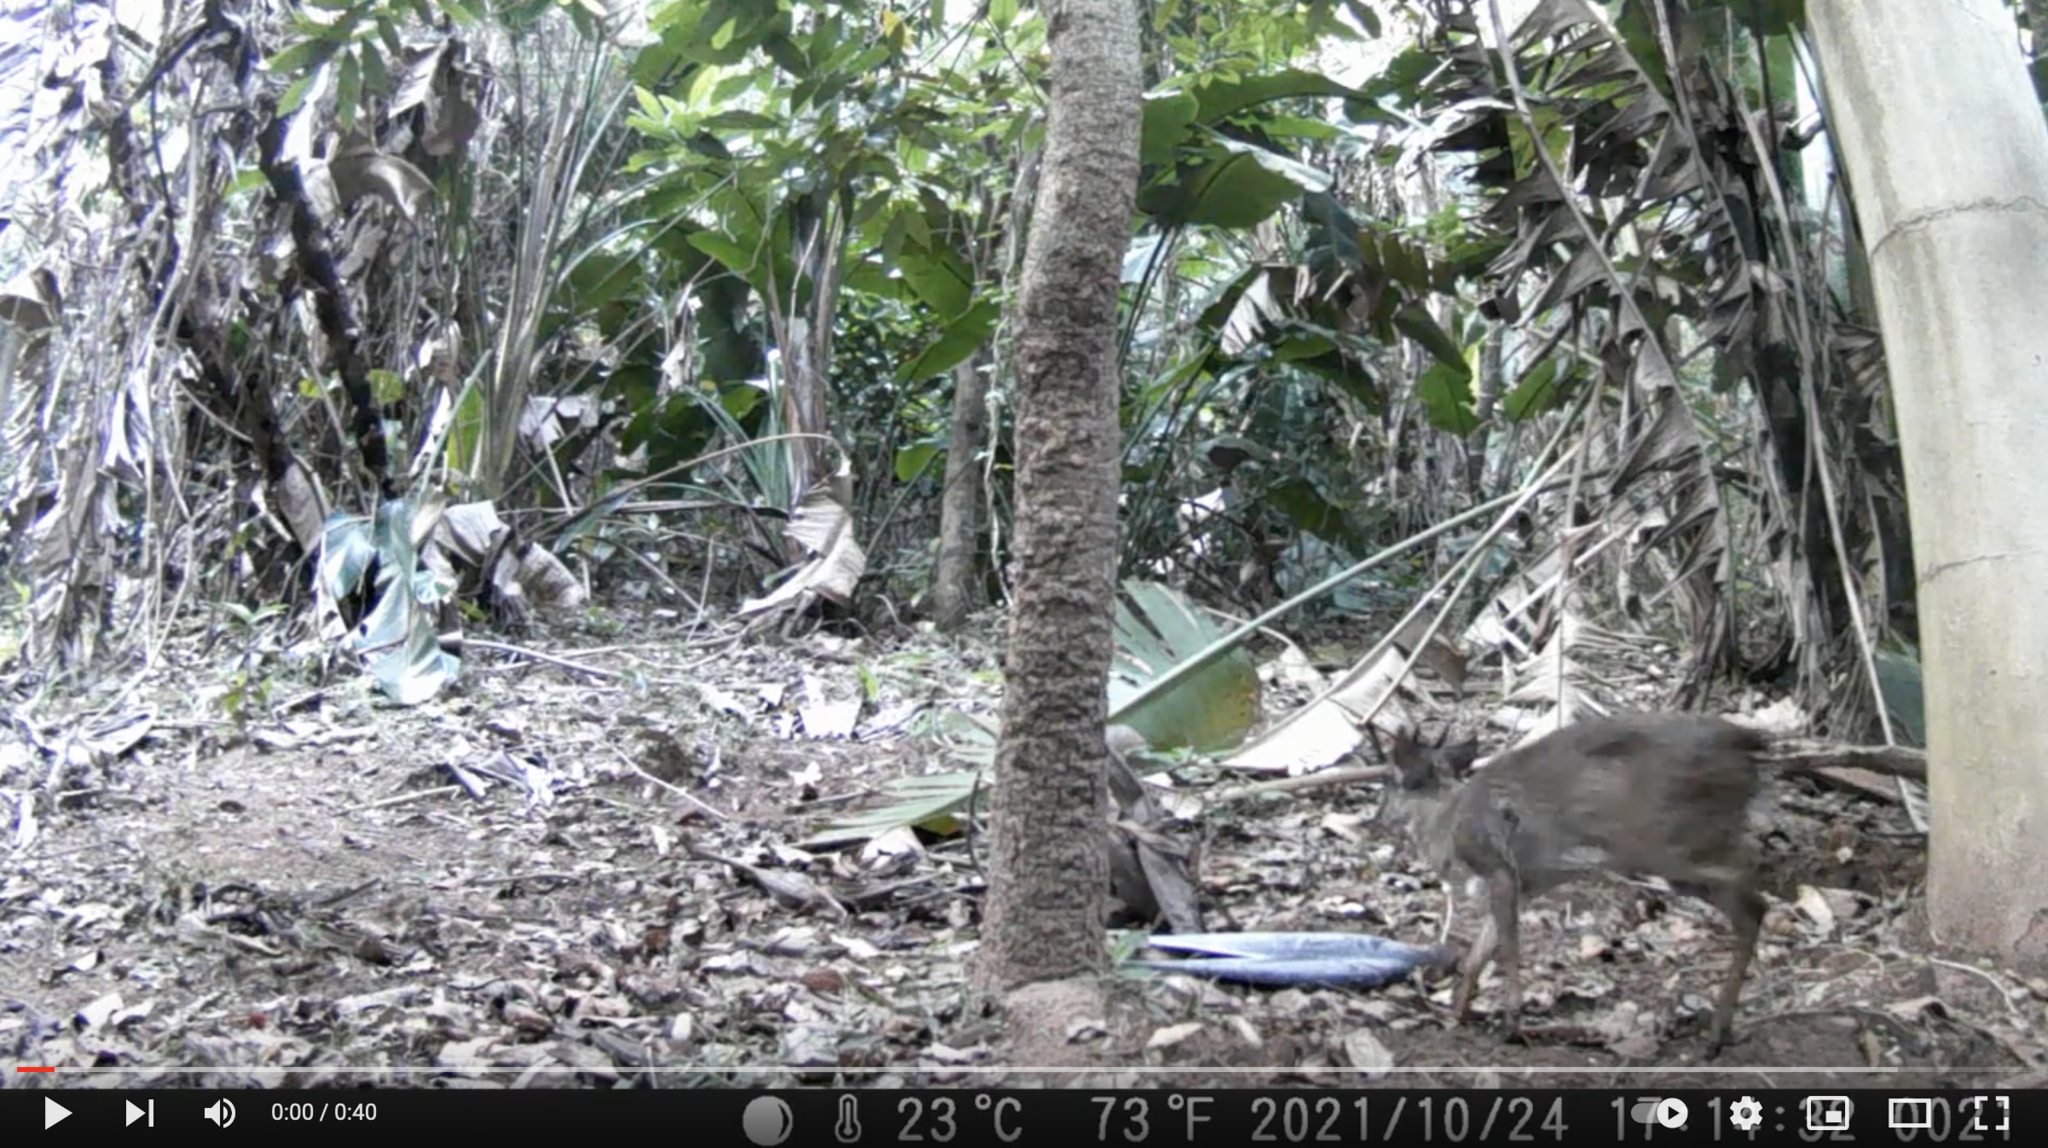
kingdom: Animalia
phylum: Chordata
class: Mammalia
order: Artiodactyla
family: Bovidae
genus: Philantomba
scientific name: Philantomba monticola
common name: Blue duiker
